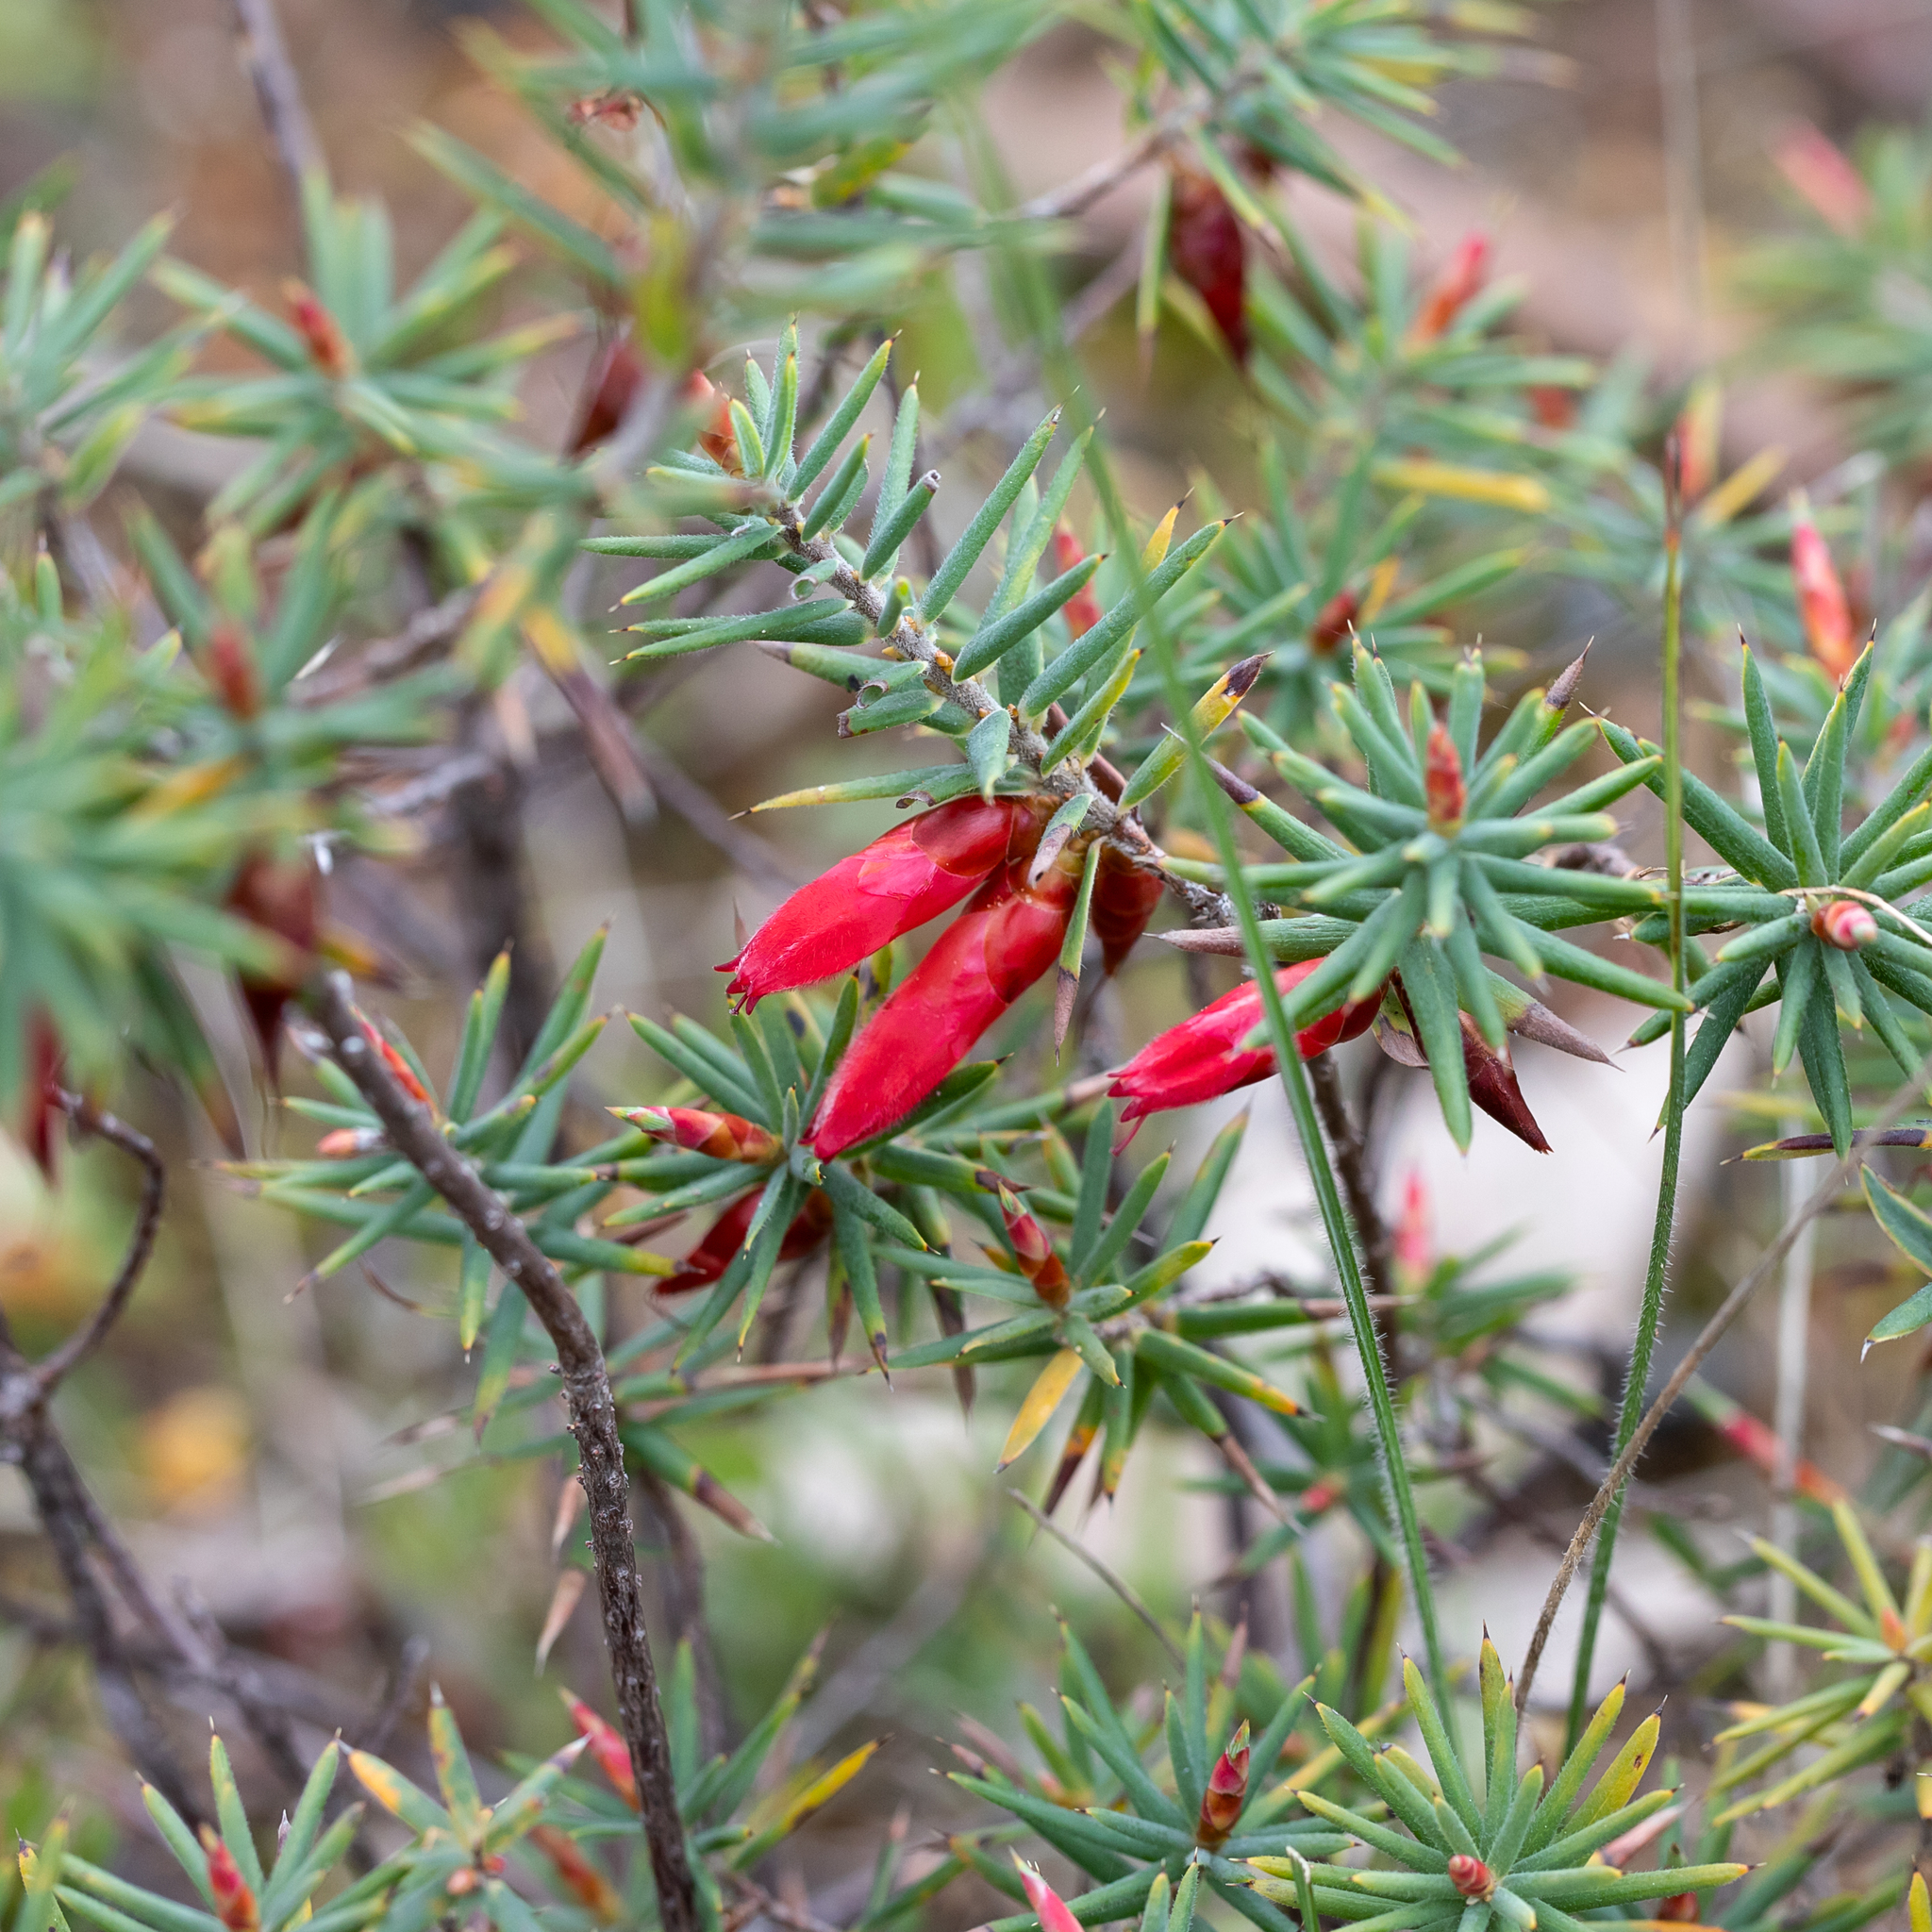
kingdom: Plantae
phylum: Tracheophyta
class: Magnoliopsida
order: Ericales
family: Ericaceae
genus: Stenanthera
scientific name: Stenanthera conostephioides
